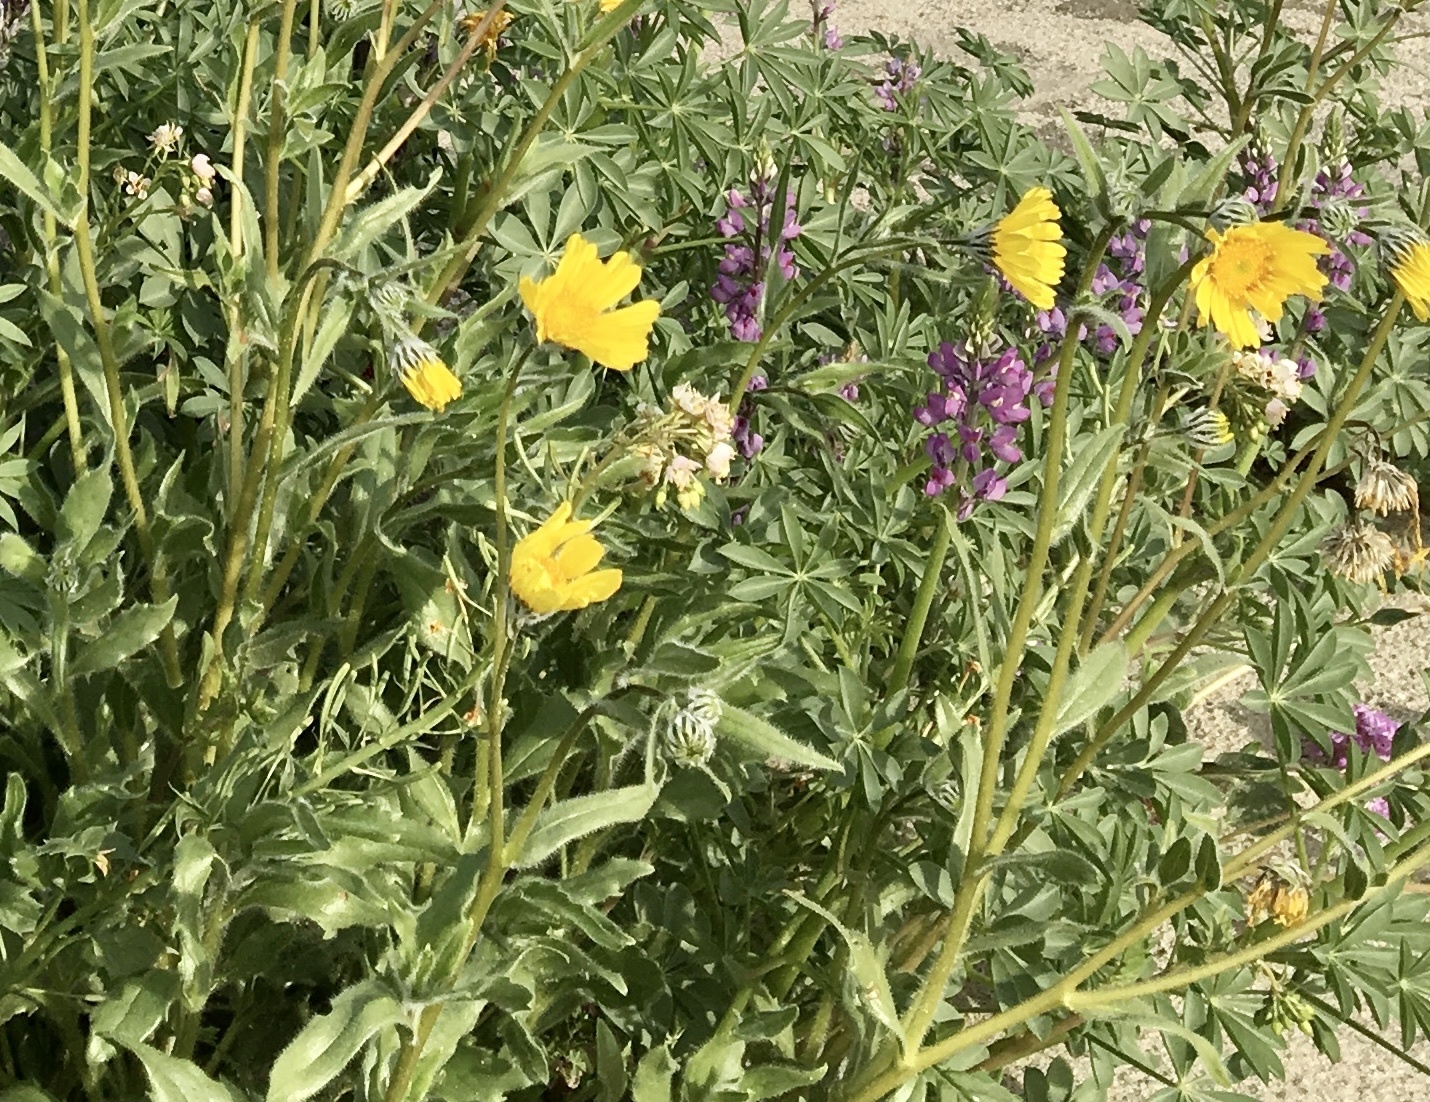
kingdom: Plantae
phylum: Tracheophyta
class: Magnoliopsida
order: Asterales
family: Asteraceae
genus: Geraea
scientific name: Geraea canescens
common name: Desert-gold
